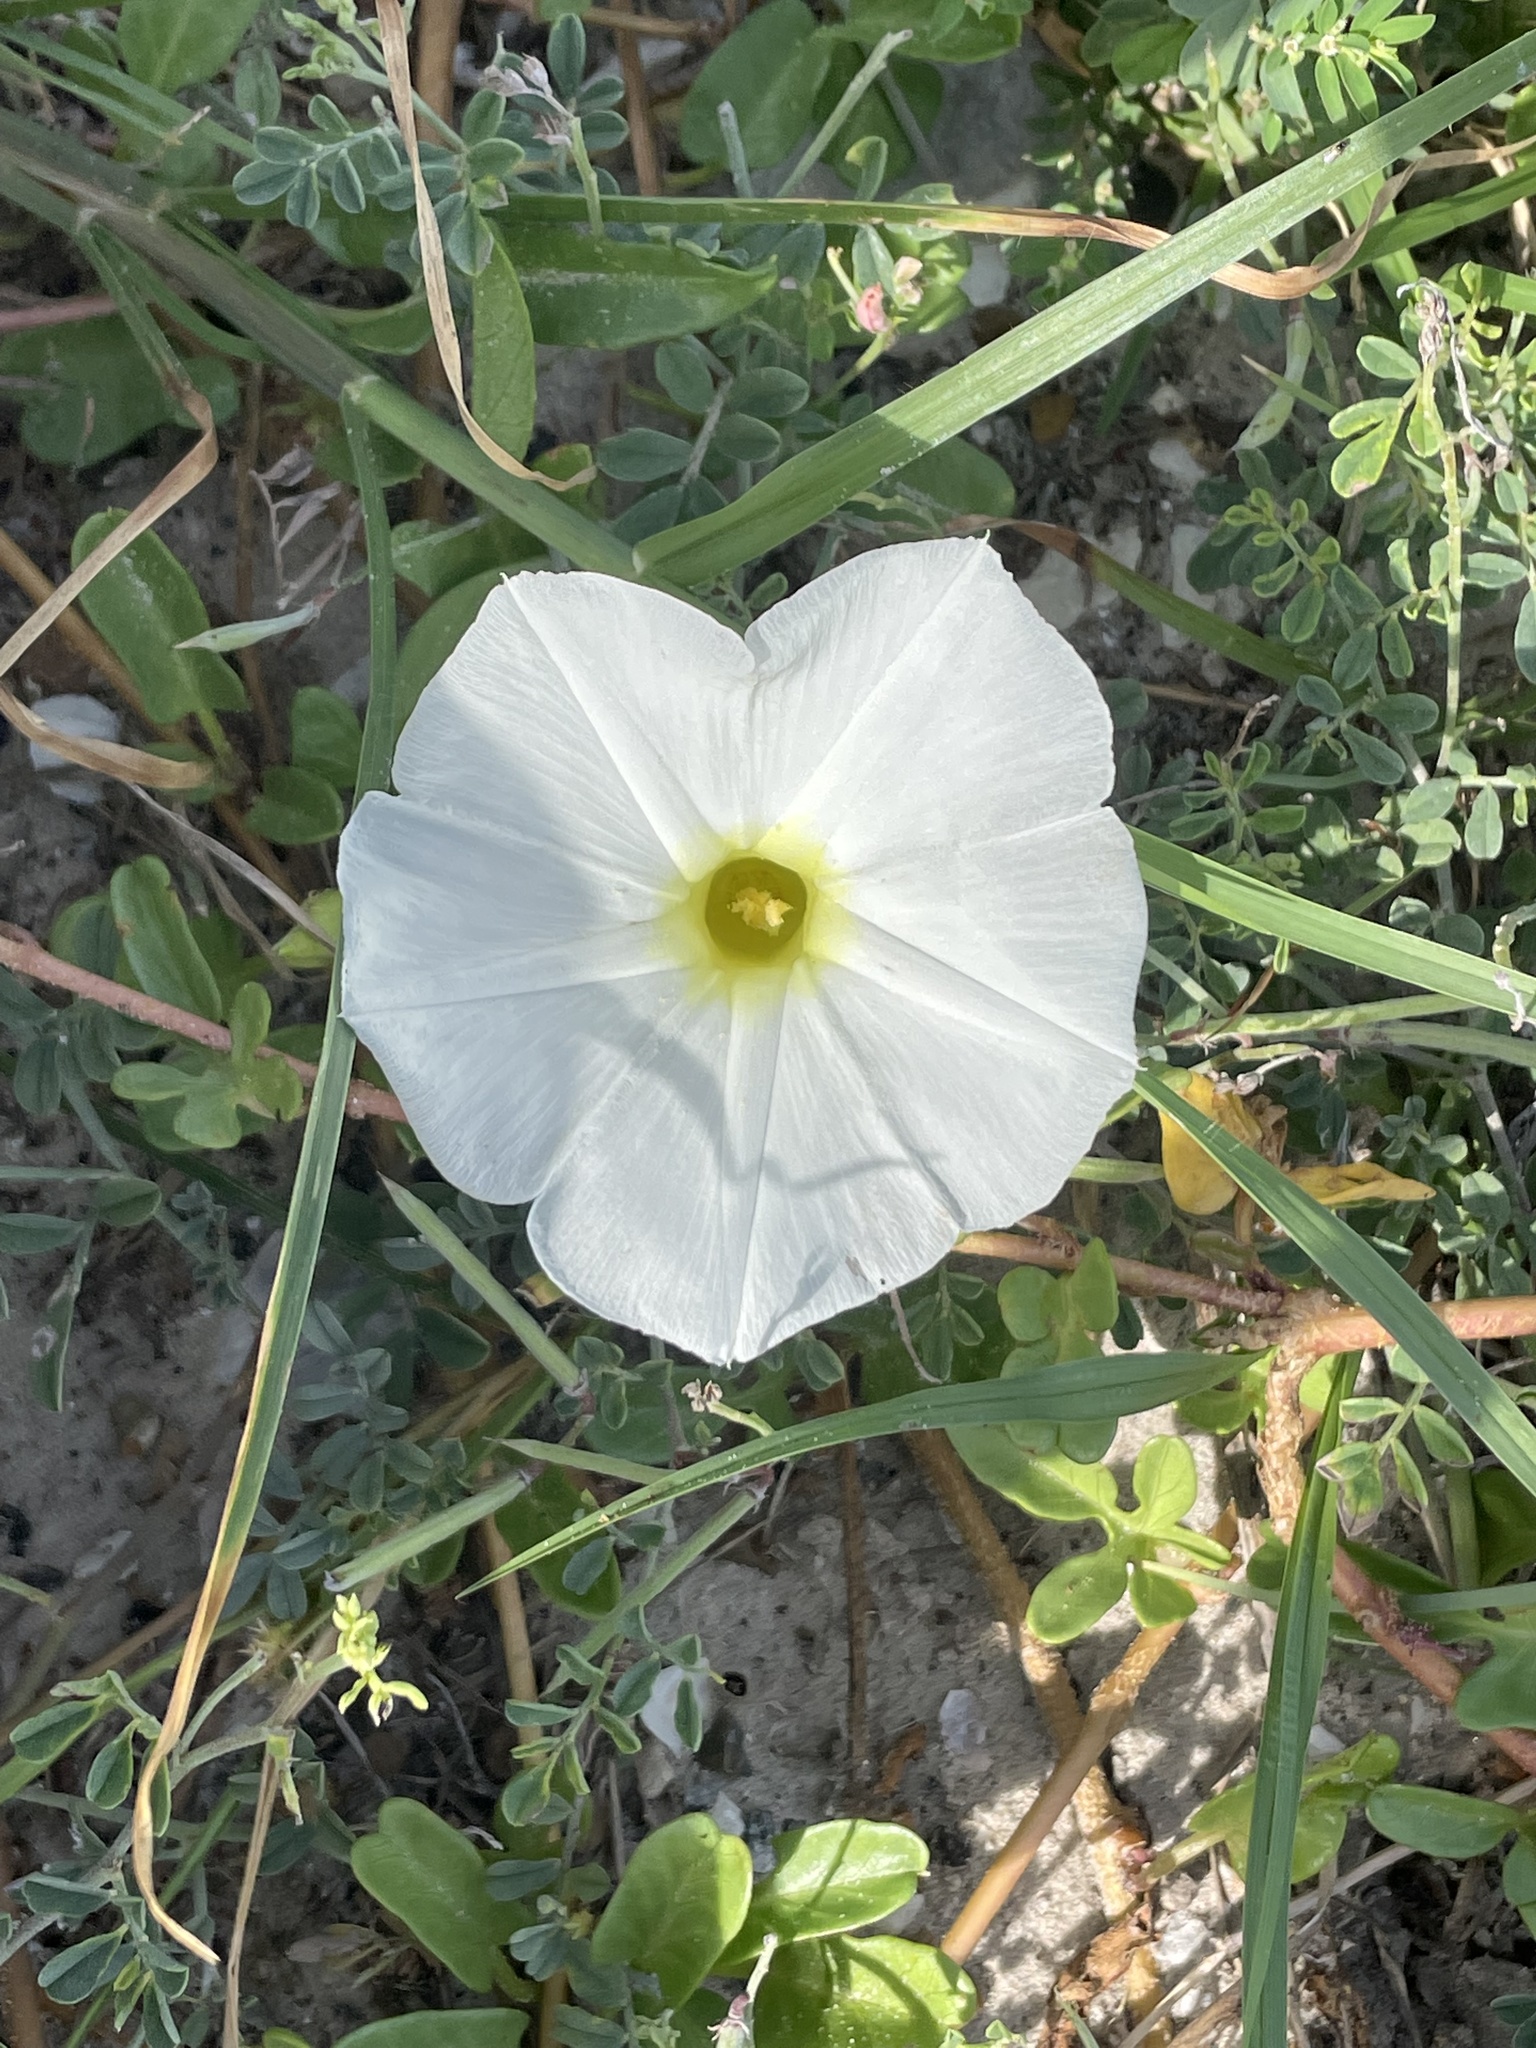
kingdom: Plantae
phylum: Tracheophyta
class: Magnoliopsida
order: Solanales
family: Convolvulaceae
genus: Ipomoea
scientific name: Ipomoea imperati
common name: Fiddle-leaf morning-glory
